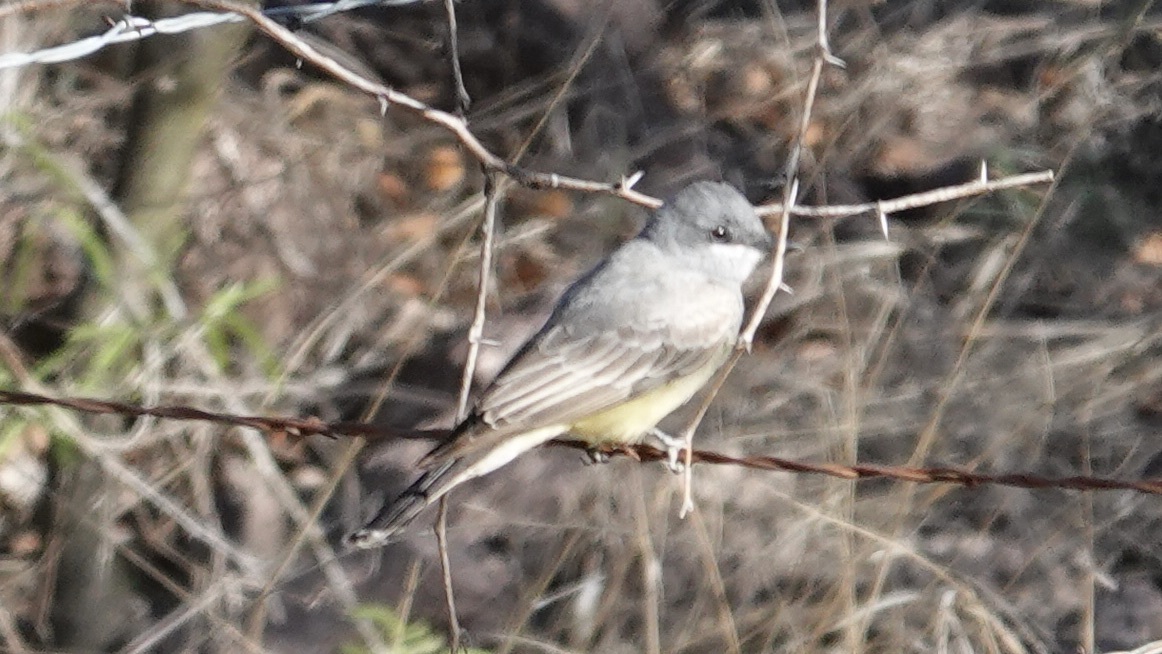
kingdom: Animalia
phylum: Chordata
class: Aves
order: Passeriformes
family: Tyrannidae
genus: Tyrannus
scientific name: Tyrannus vociferans
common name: Cassin's kingbird
